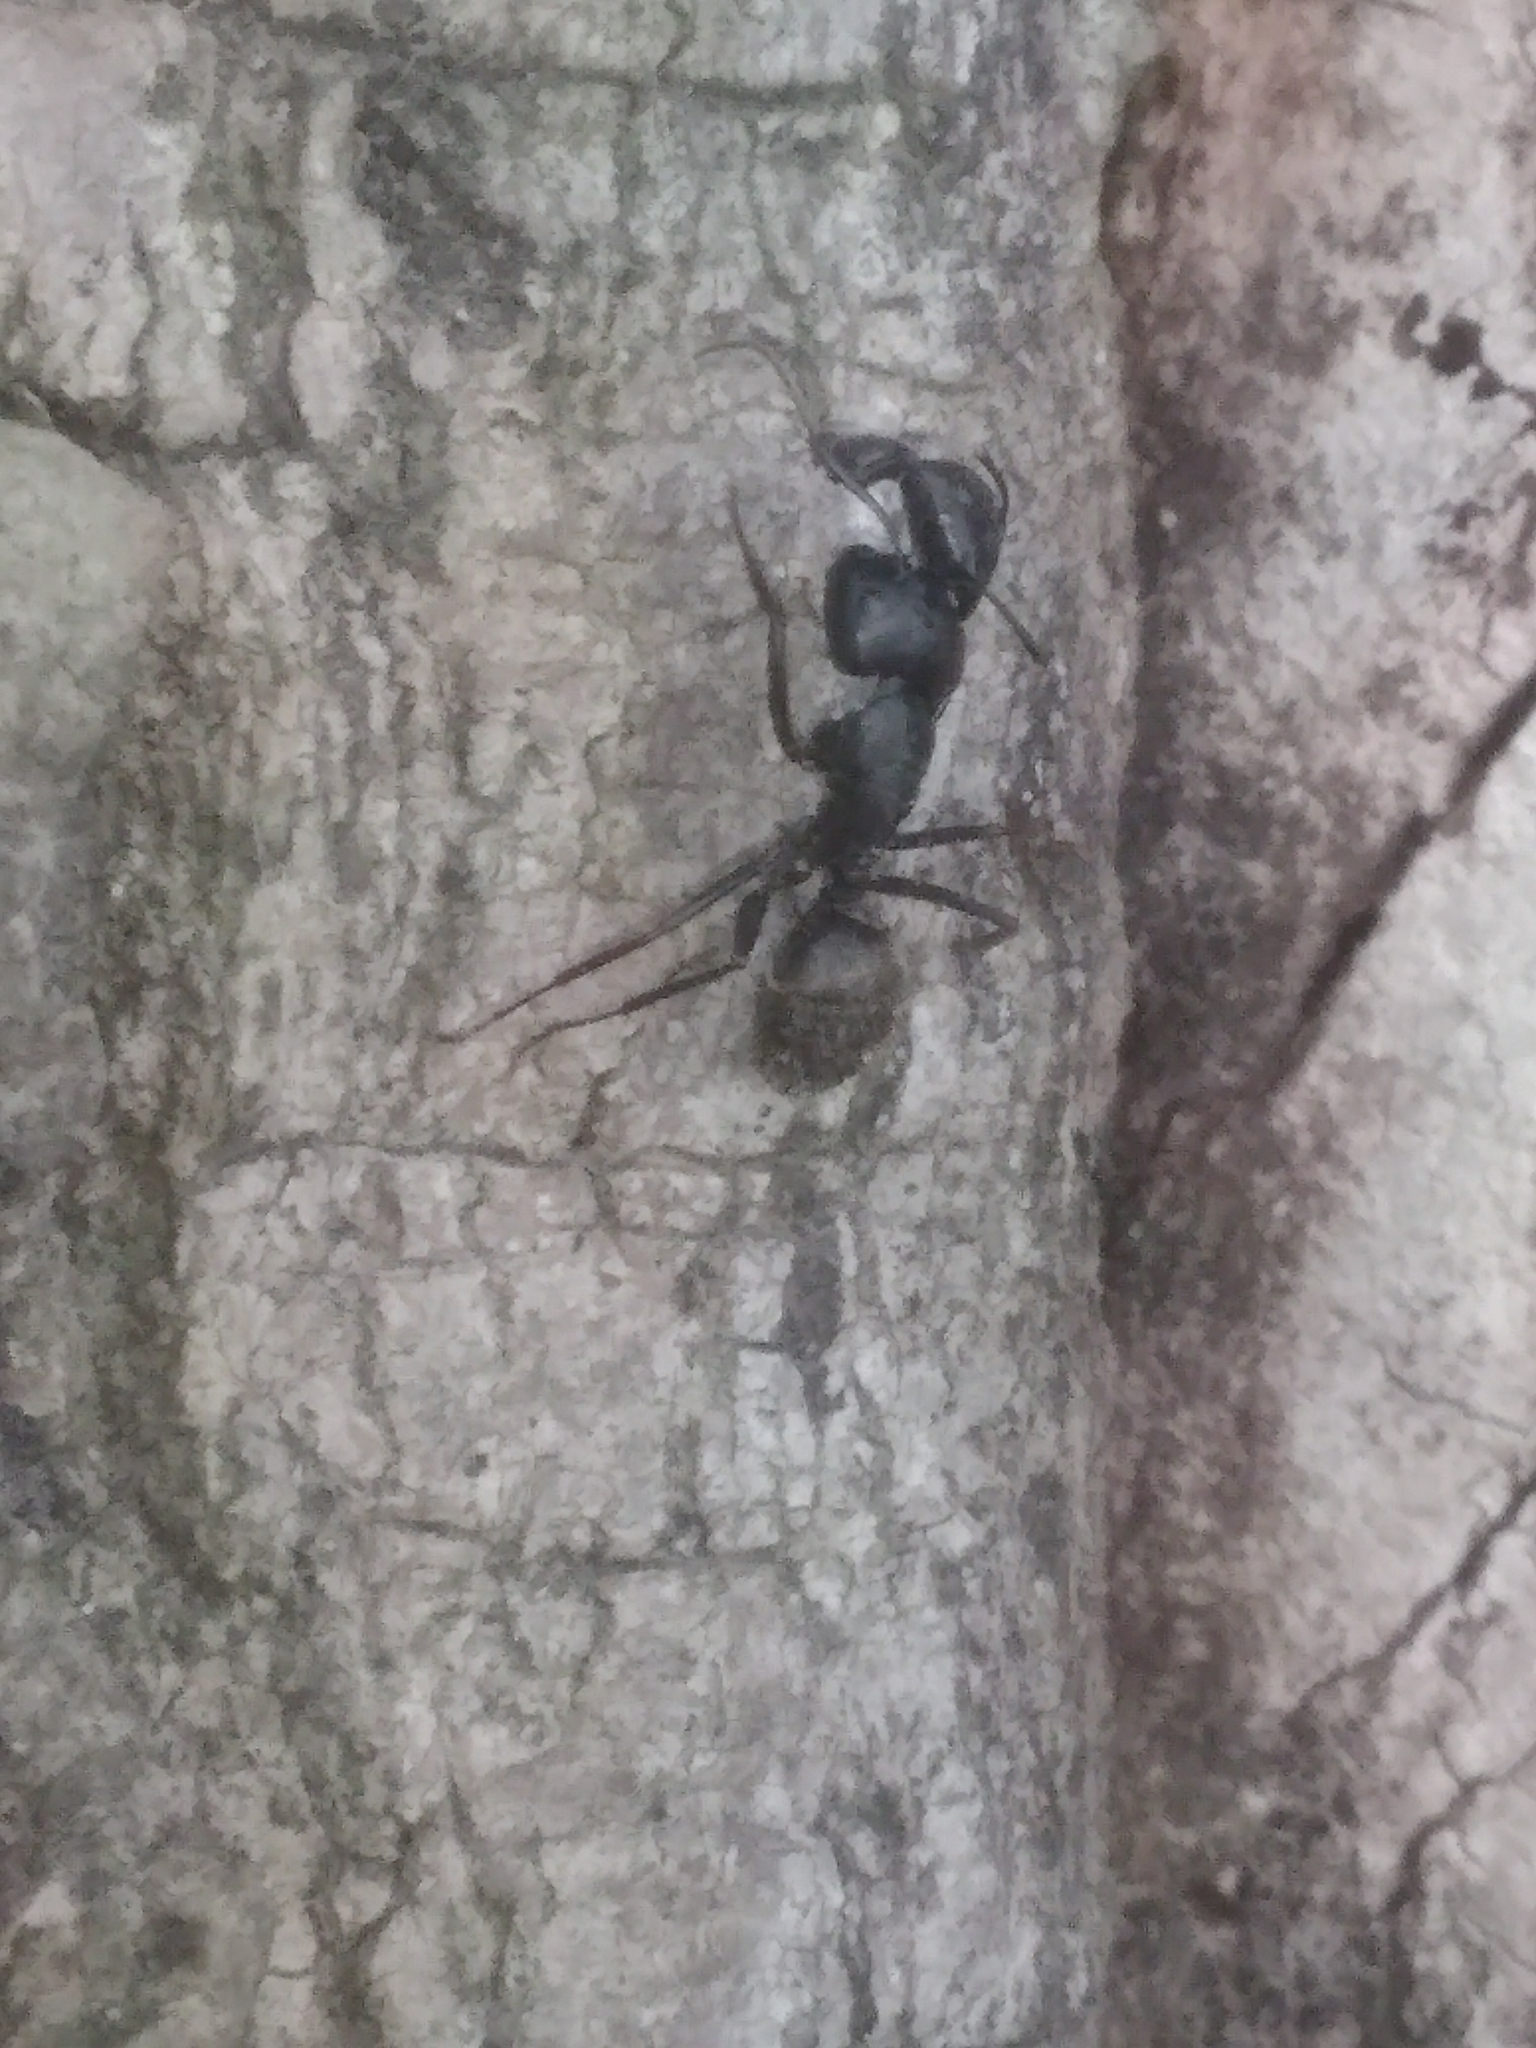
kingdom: Animalia
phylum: Arthropoda
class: Insecta
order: Hymenoptera
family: Formicidae
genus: Camponotus
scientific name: Camponotus pennsylvanicus
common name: Black carpenter ant
